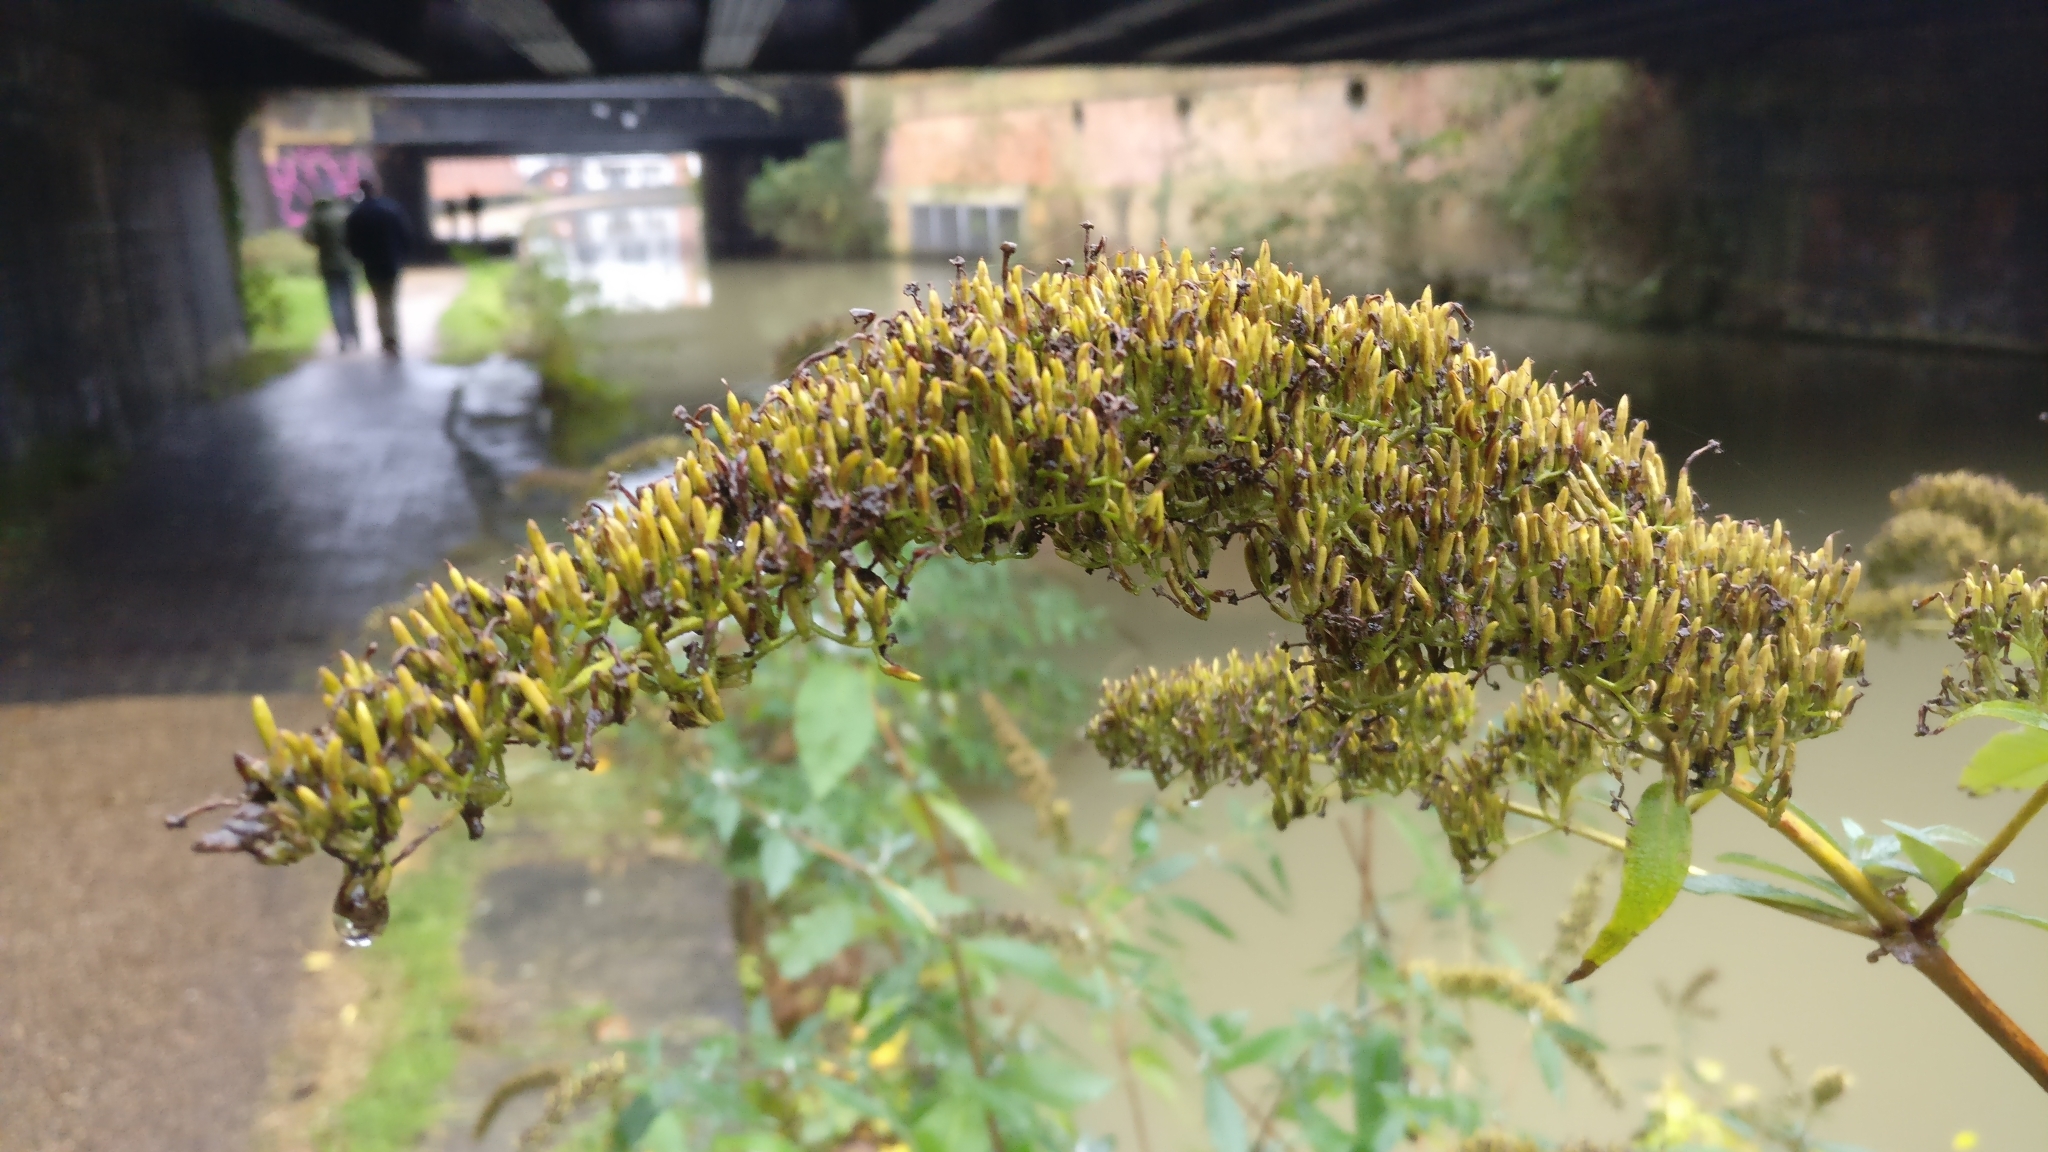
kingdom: Plantae
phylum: Tracheophyta
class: Magnoliopsida
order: Lamiales
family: Scrophulariaceae
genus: Buddleja
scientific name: Buddleja davidii
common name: Butterfly-bush
